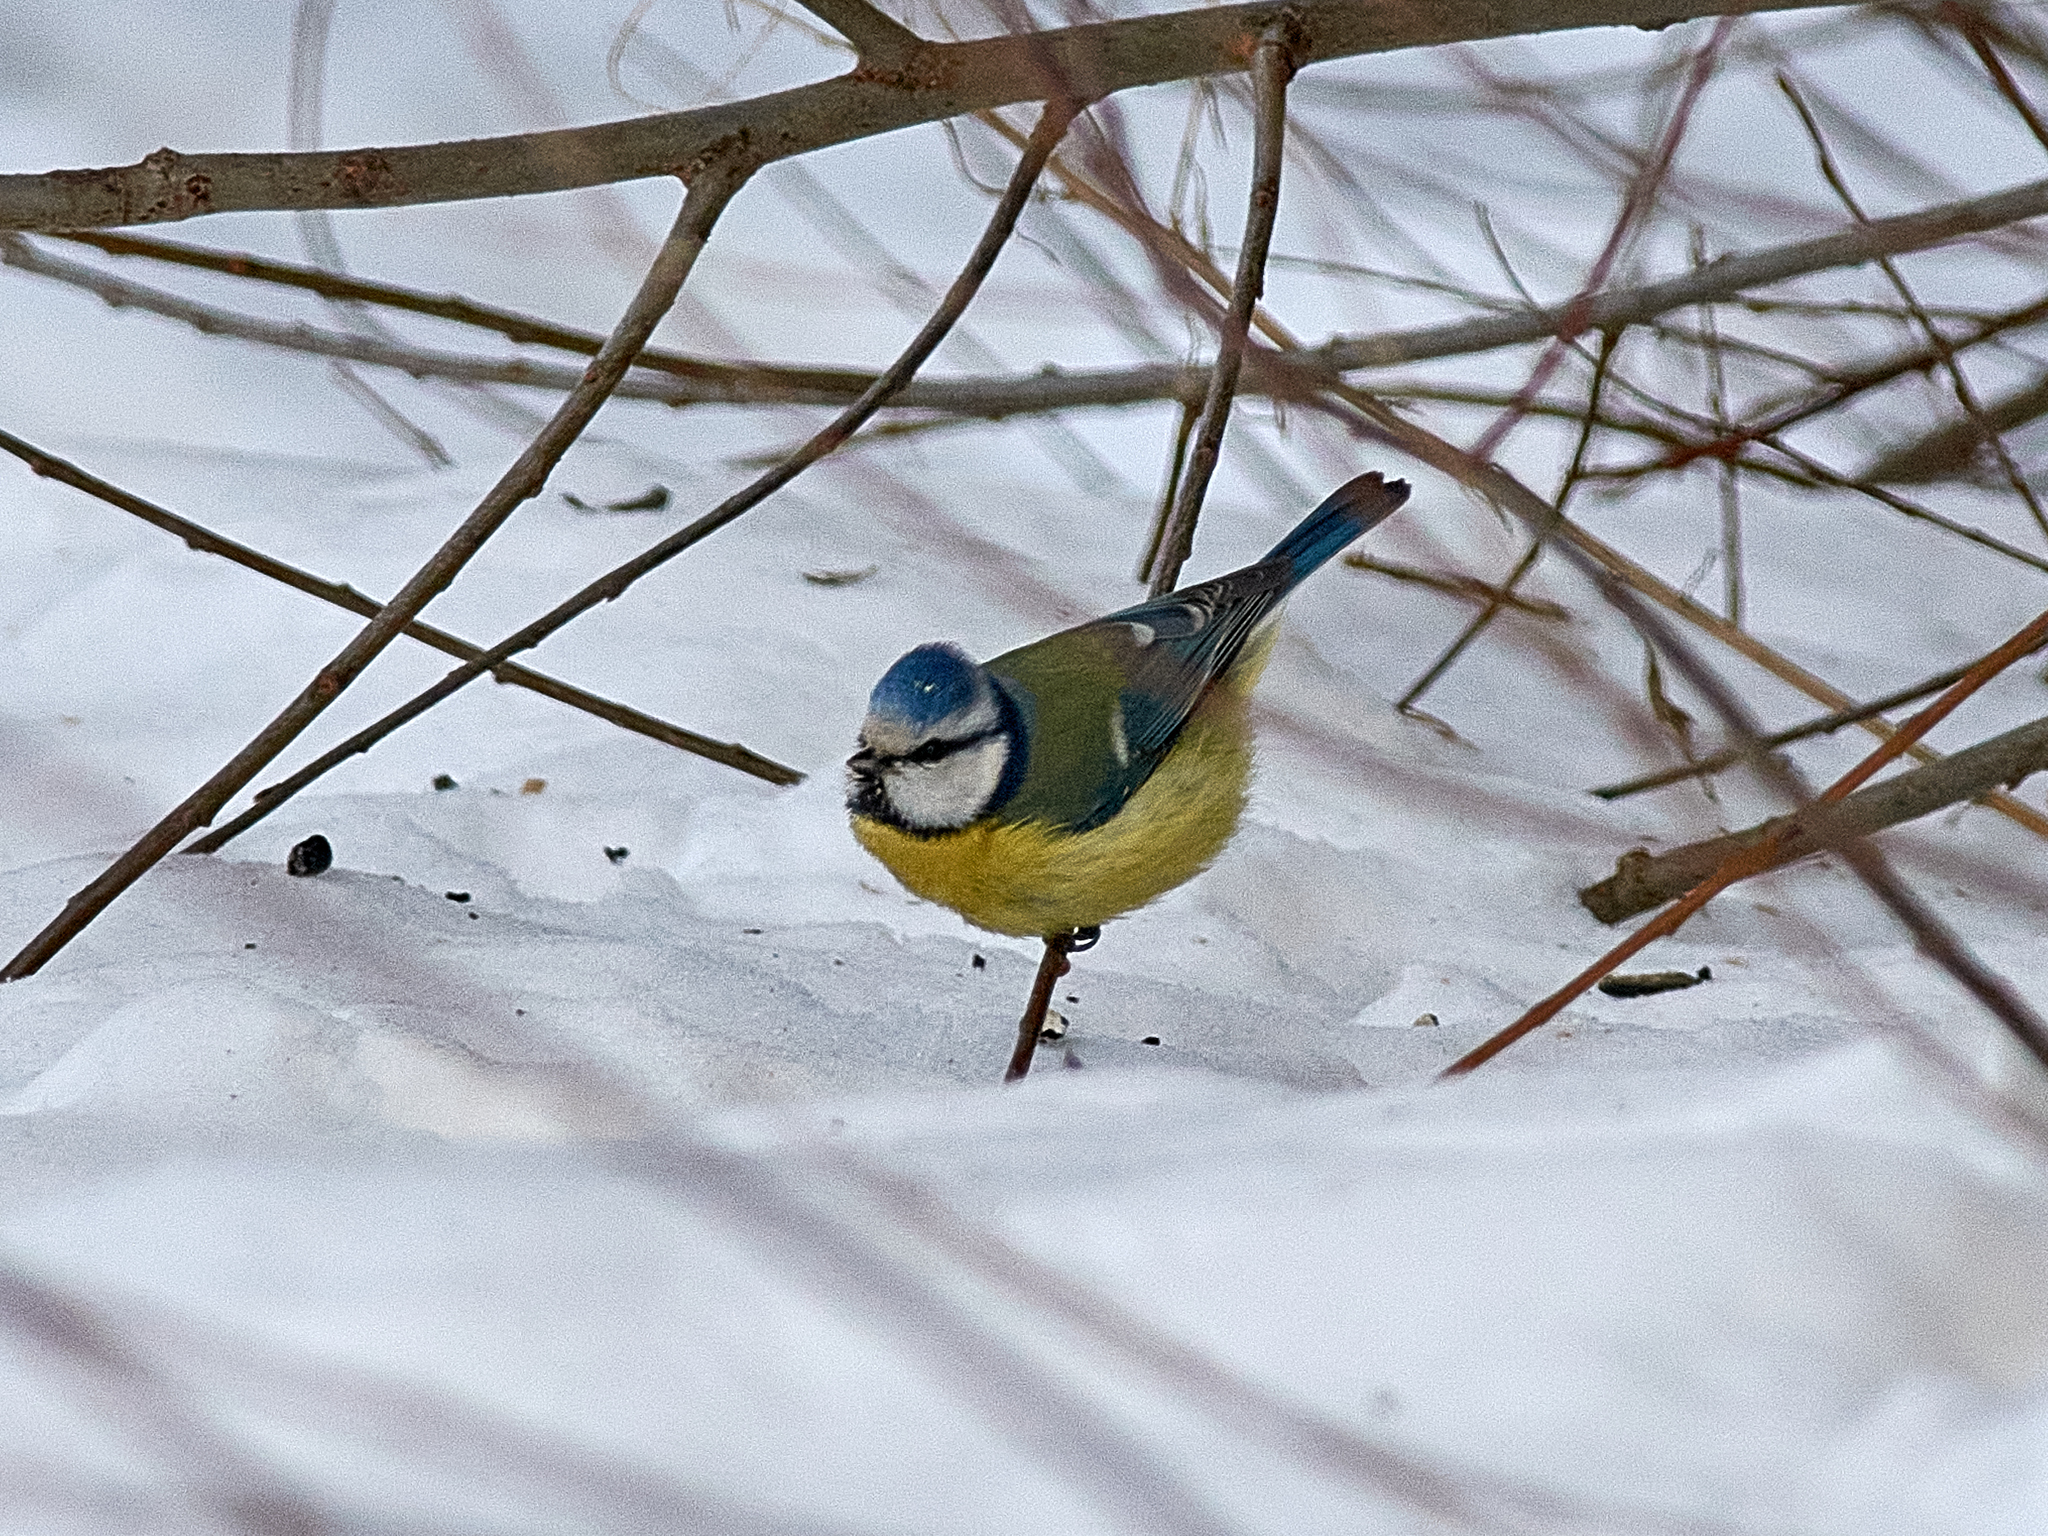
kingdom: Animalia
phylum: Chordata
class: Aves
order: Passeriformes
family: Paridae
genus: Cyanistes
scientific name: Cyanistes caeruleus
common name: Eurasian blue tit
